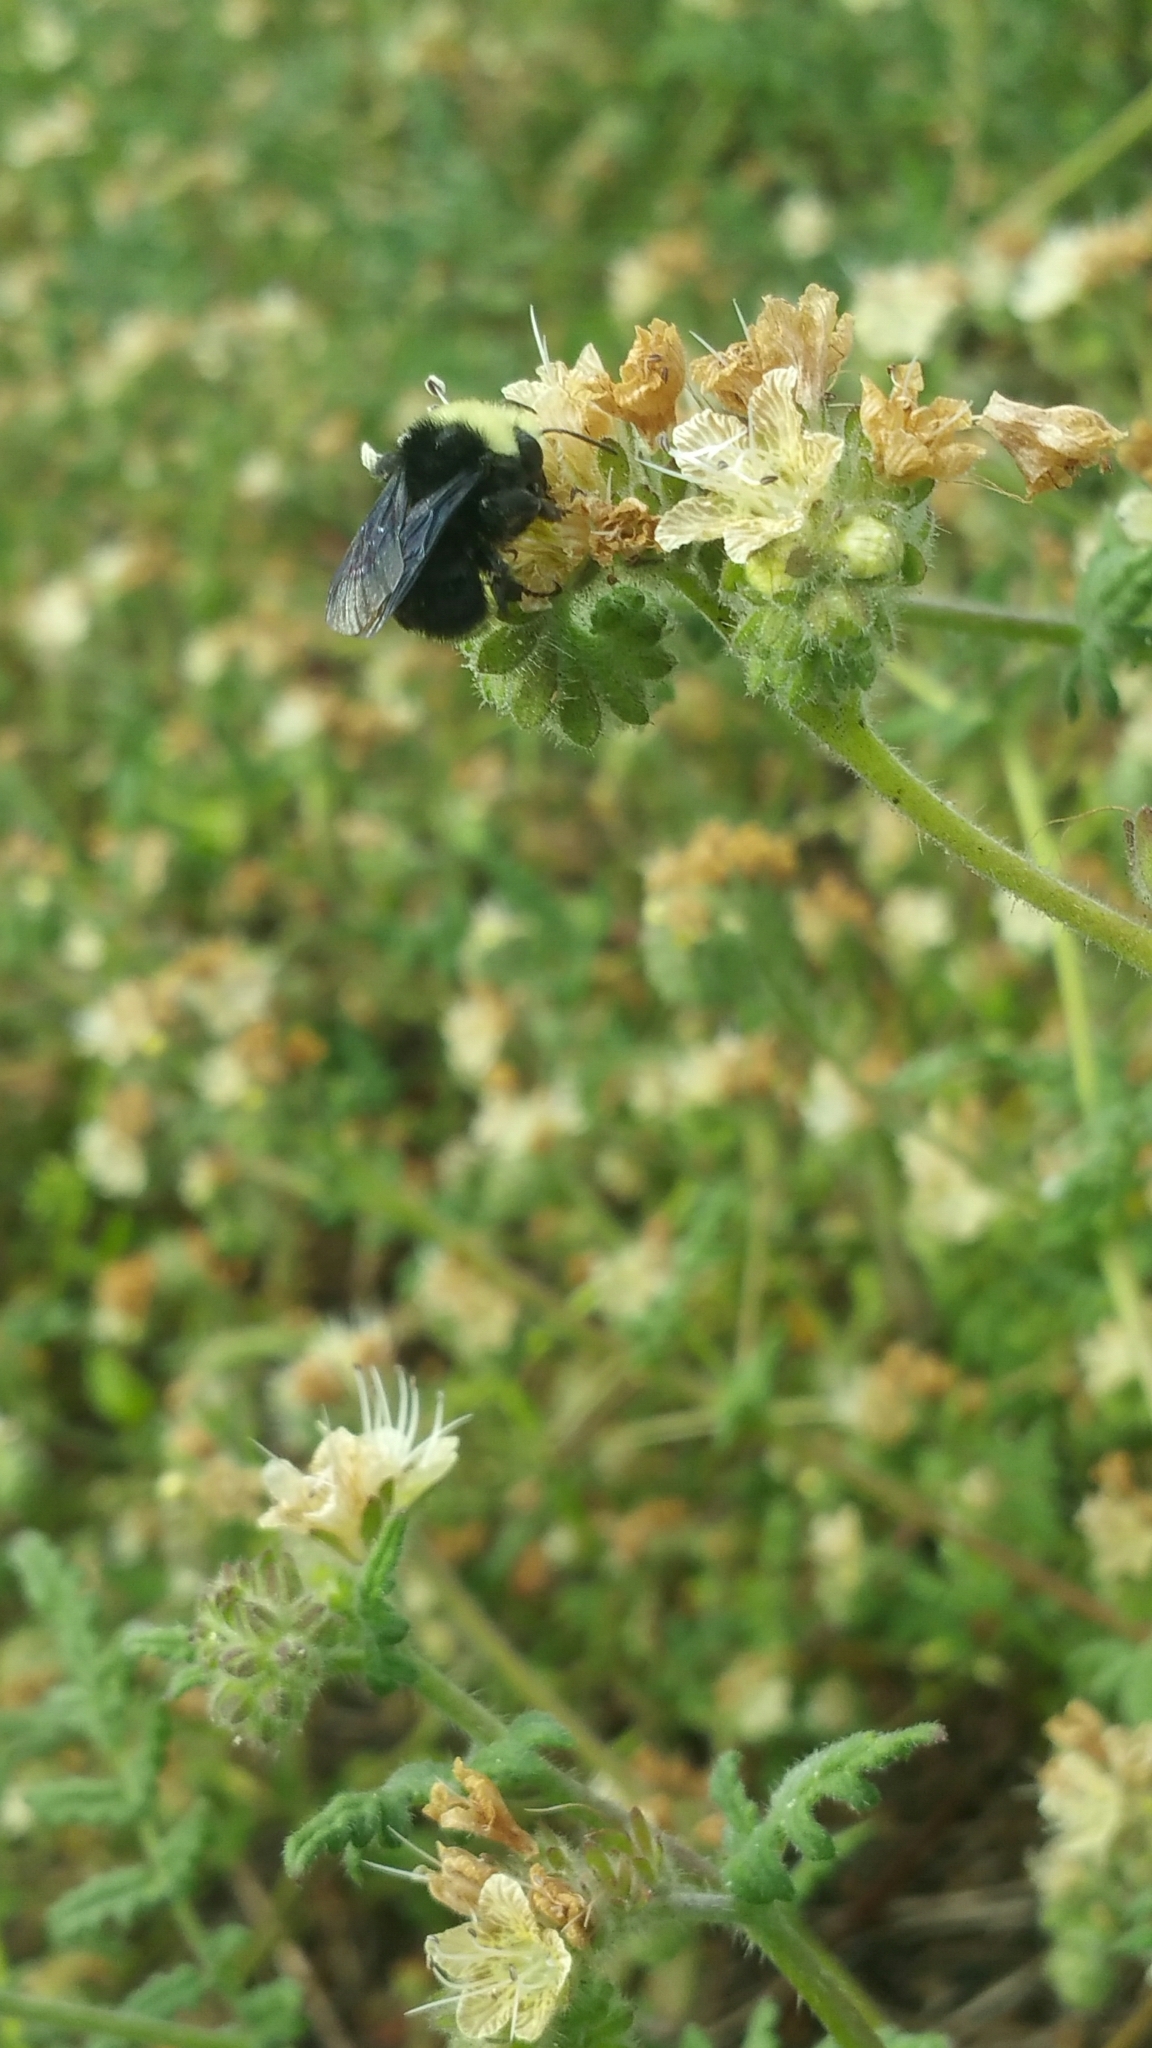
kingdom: Animalia
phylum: Arthropoda
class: Insecta
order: Hymenoptera
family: Apidae
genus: Pyrobombus
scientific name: Pyrobombus
